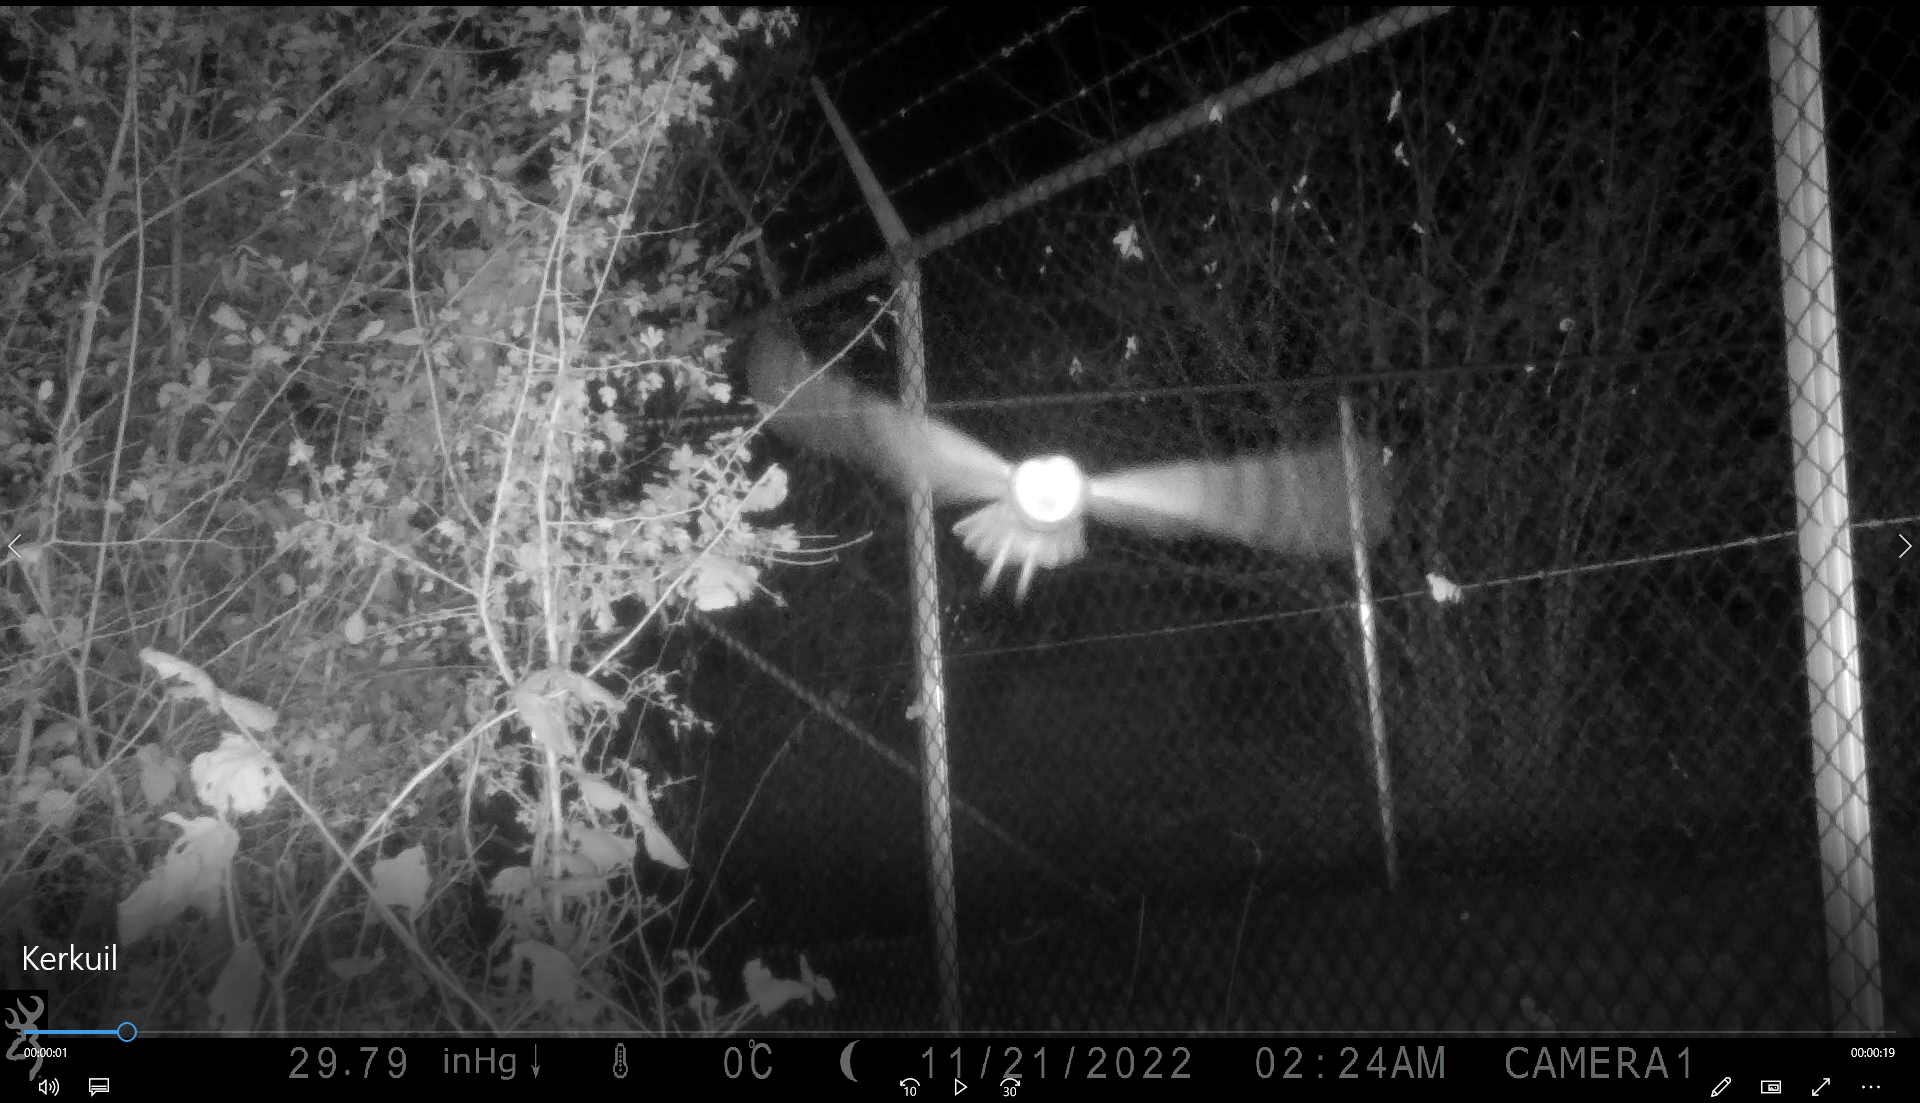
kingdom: Animalia
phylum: Chordata
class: Aves
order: Strigiformes
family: Tytonidae
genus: Tyto
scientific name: Tyto alba
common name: Barn owl
